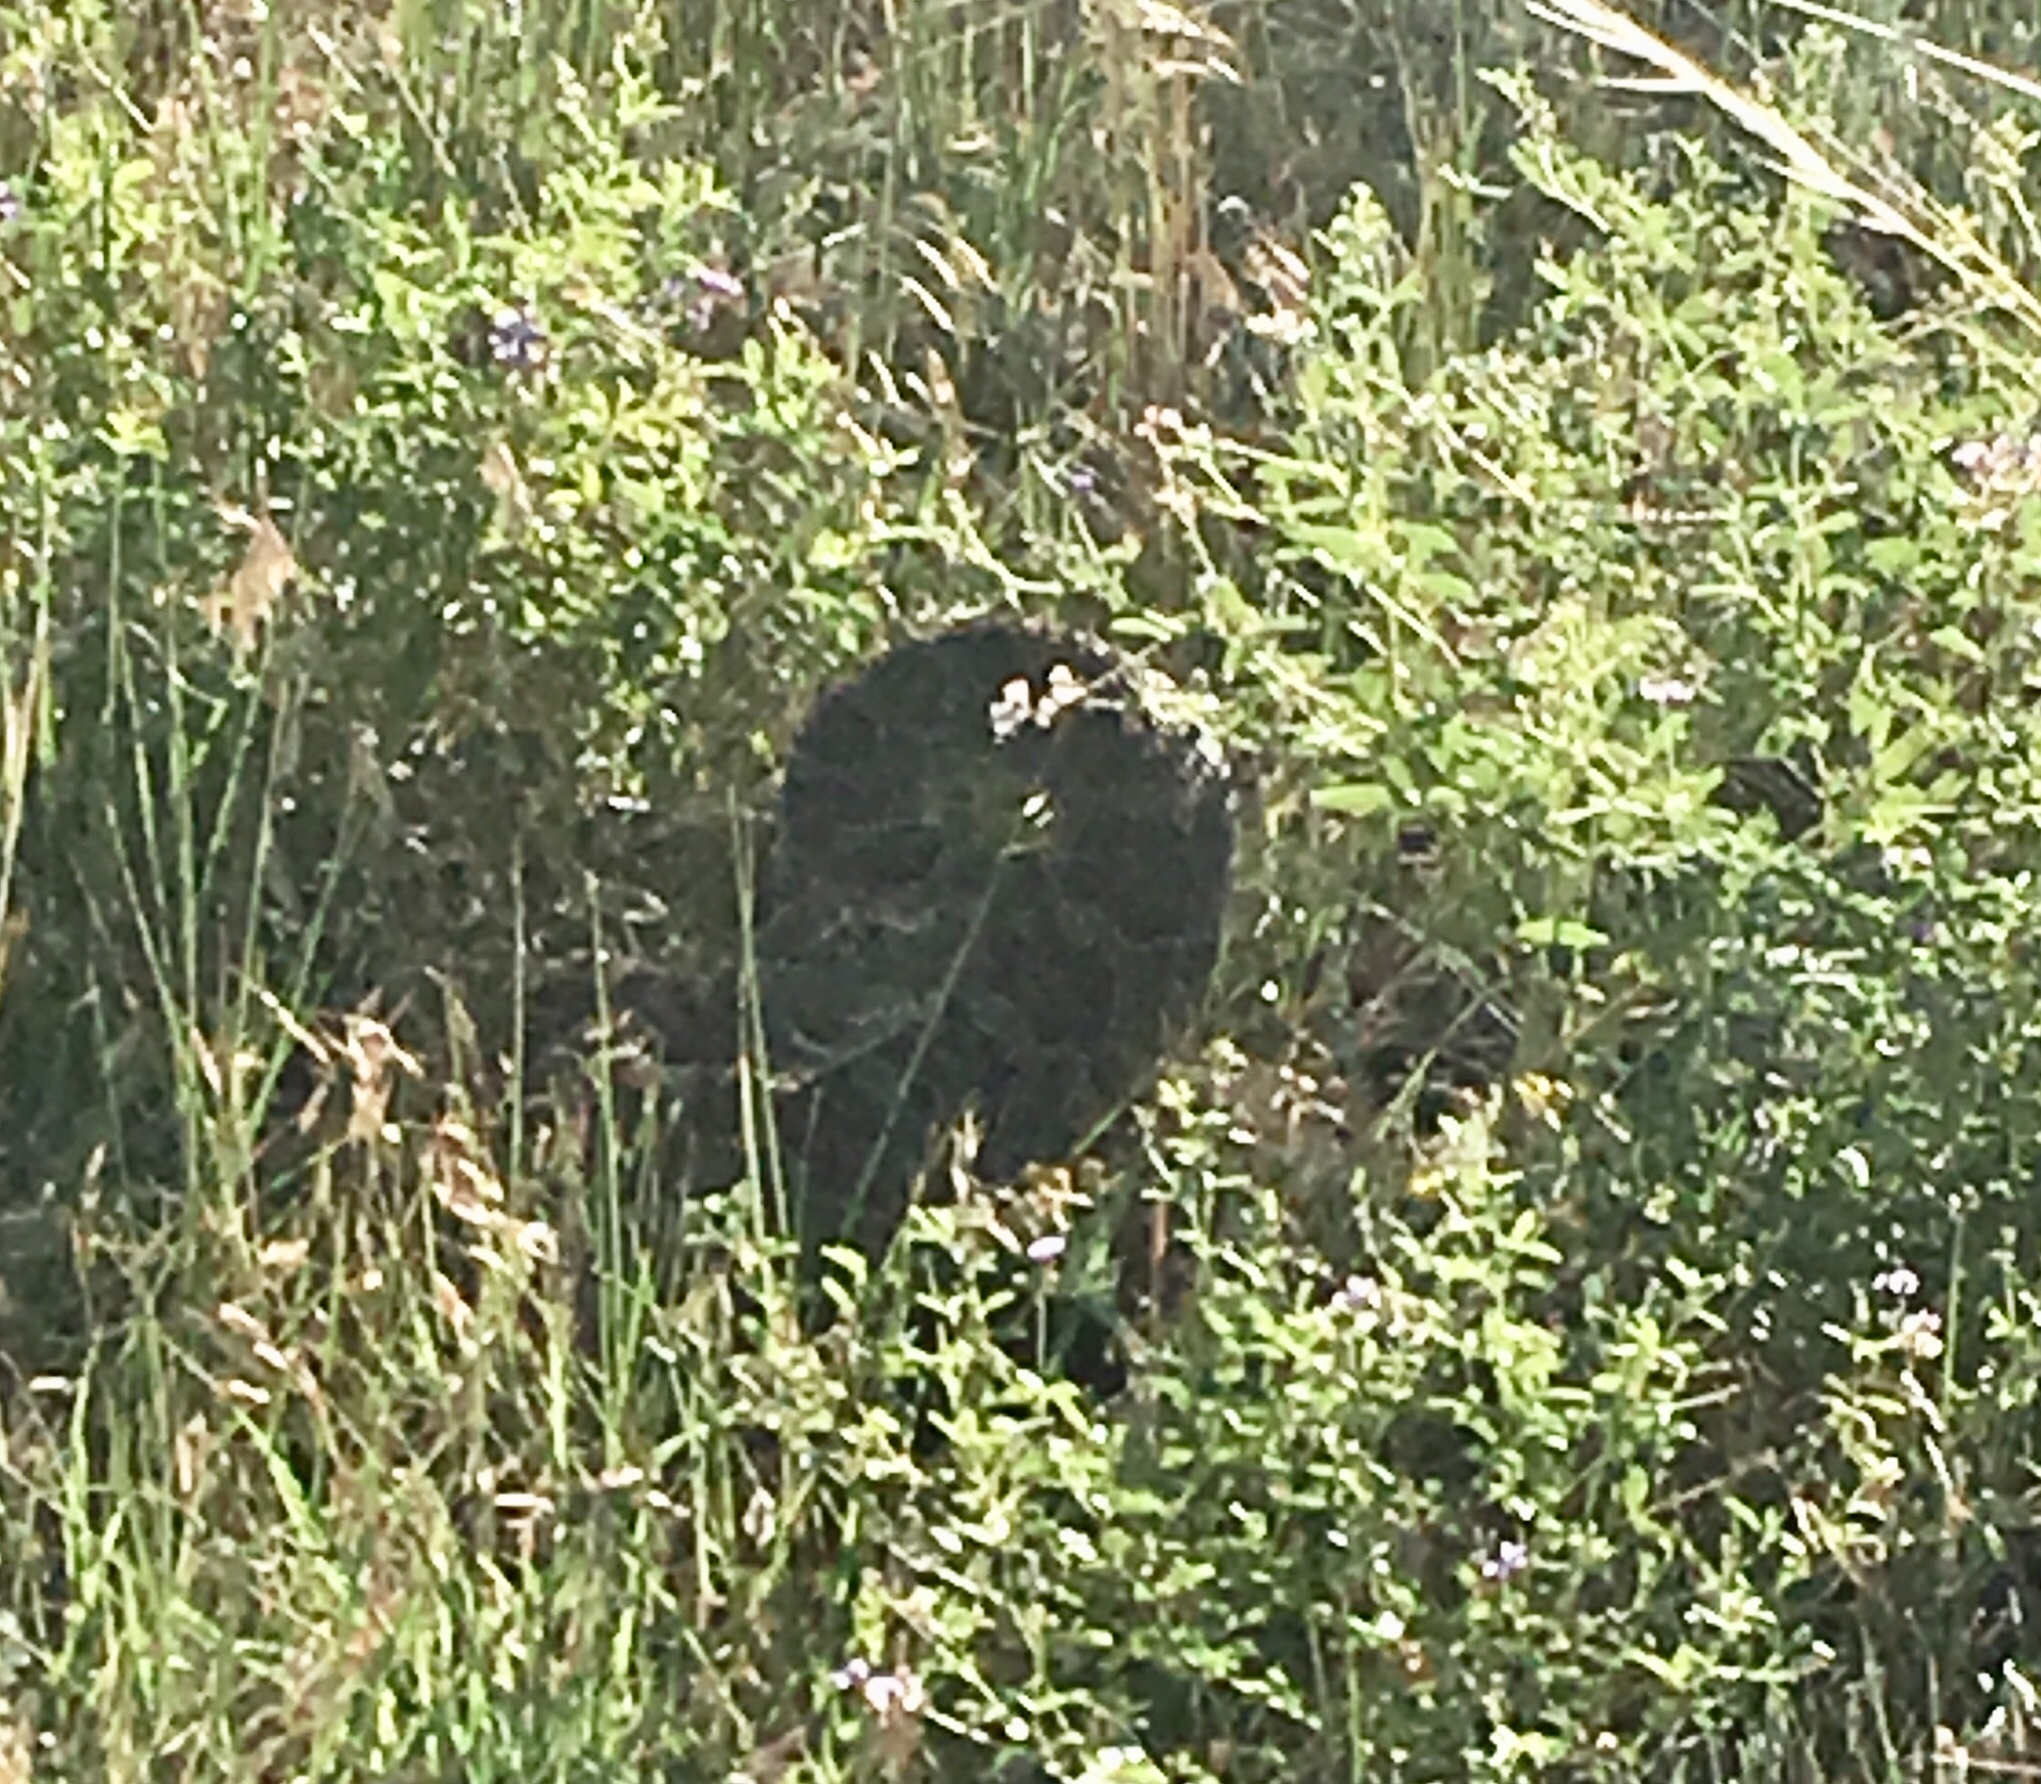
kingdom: Animalia
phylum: Chordata
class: Squamata
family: Viperidae
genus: Crotalus
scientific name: Crotalus viridis
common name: Prairie rattlesnake
